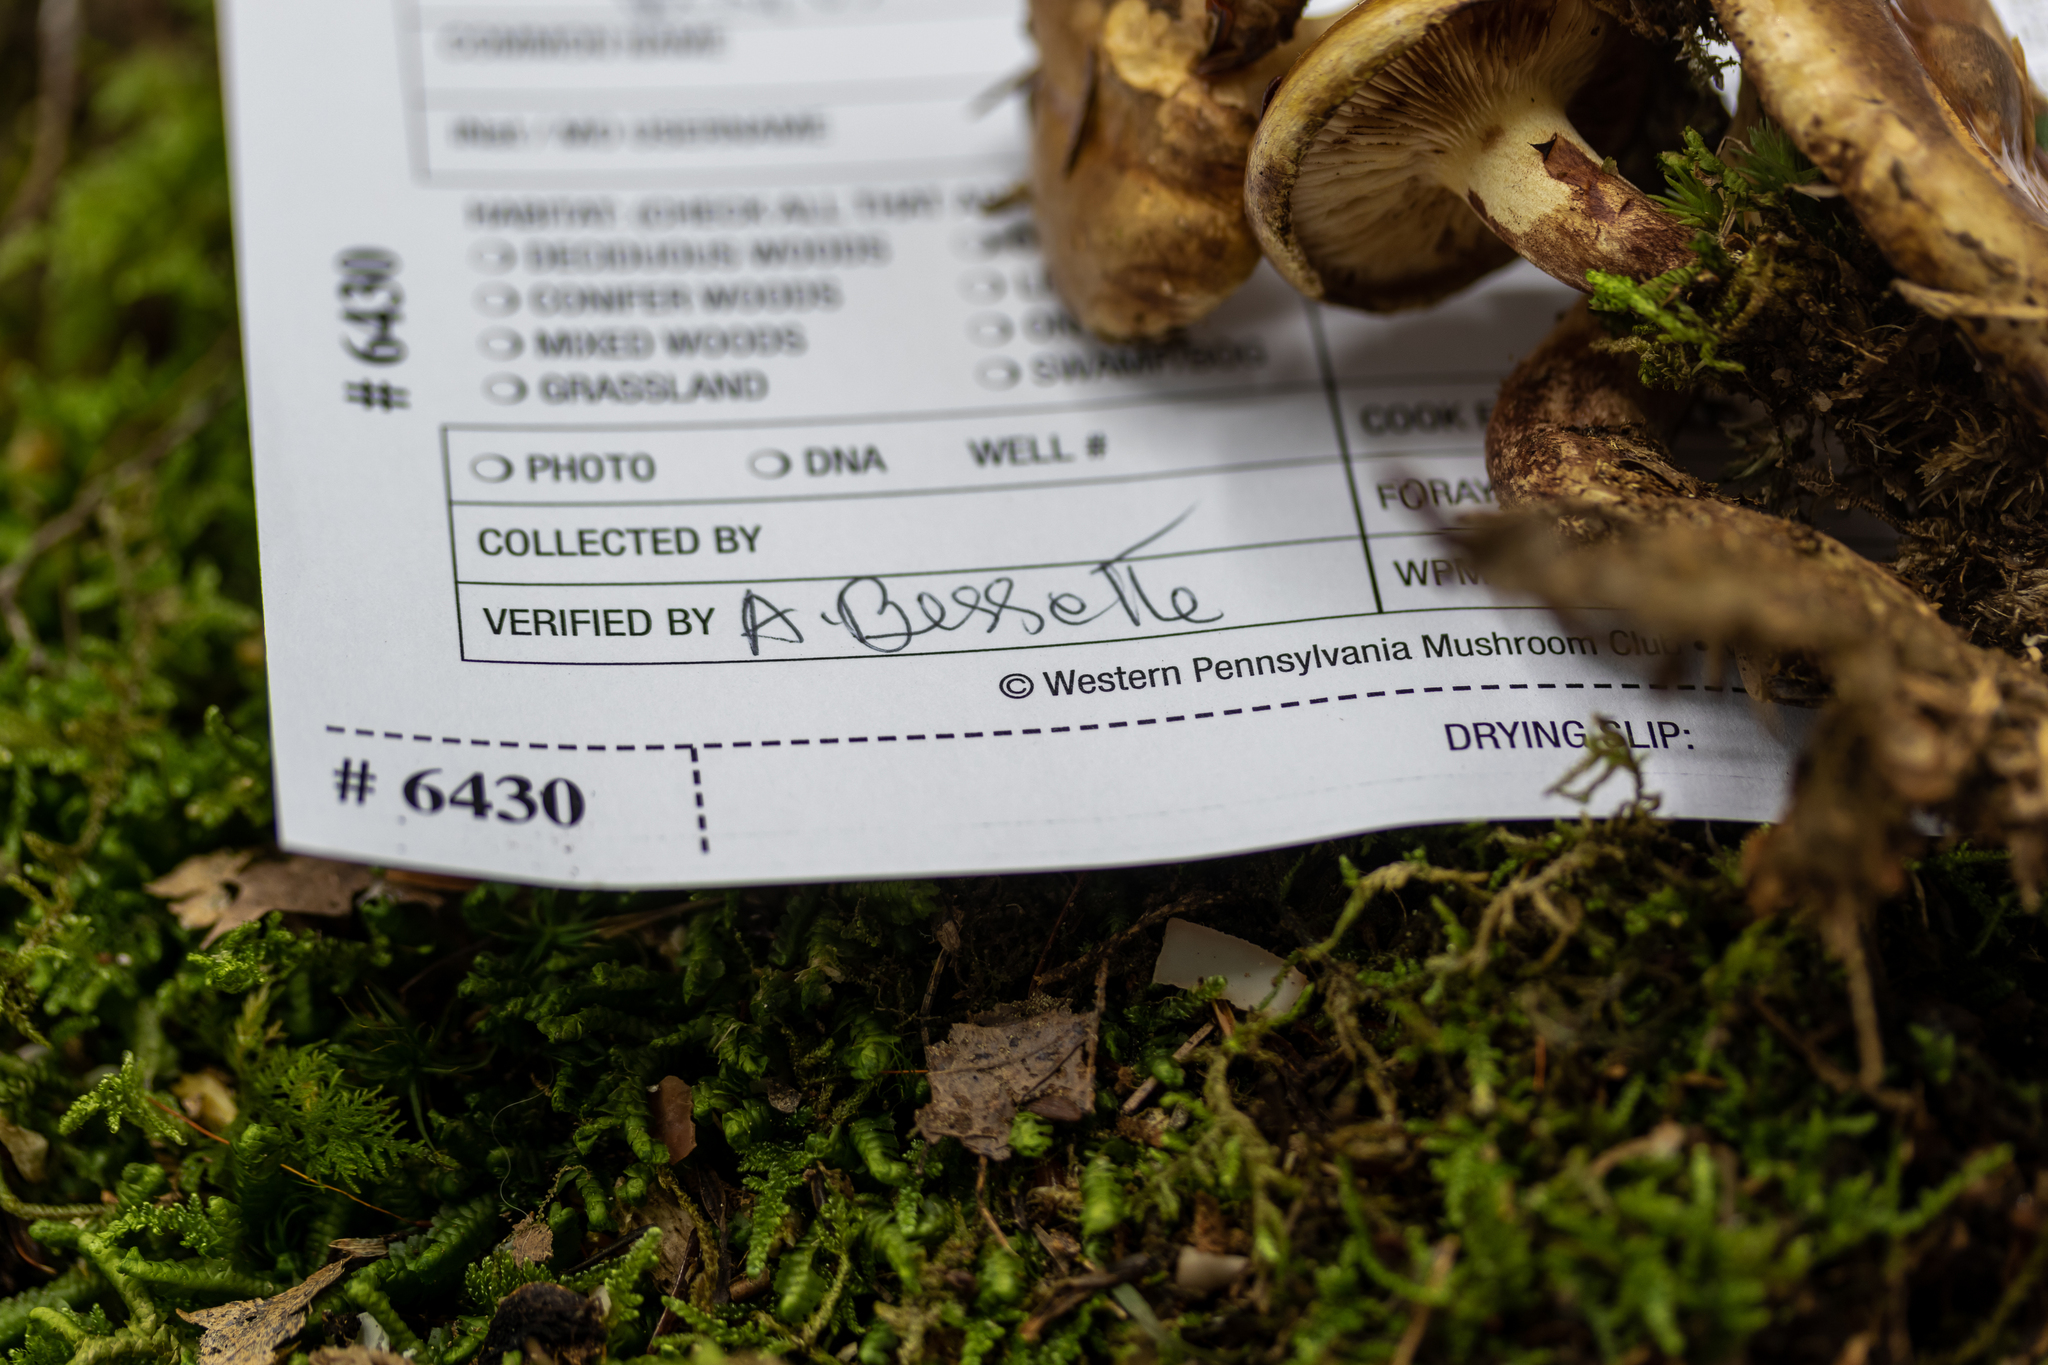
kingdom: Fungi
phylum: Basidiomycota
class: Agaricomycetes
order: Boletales
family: Paxillaceae
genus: Paxillus
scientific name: Paxillus involutus
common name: Brown roll rim
